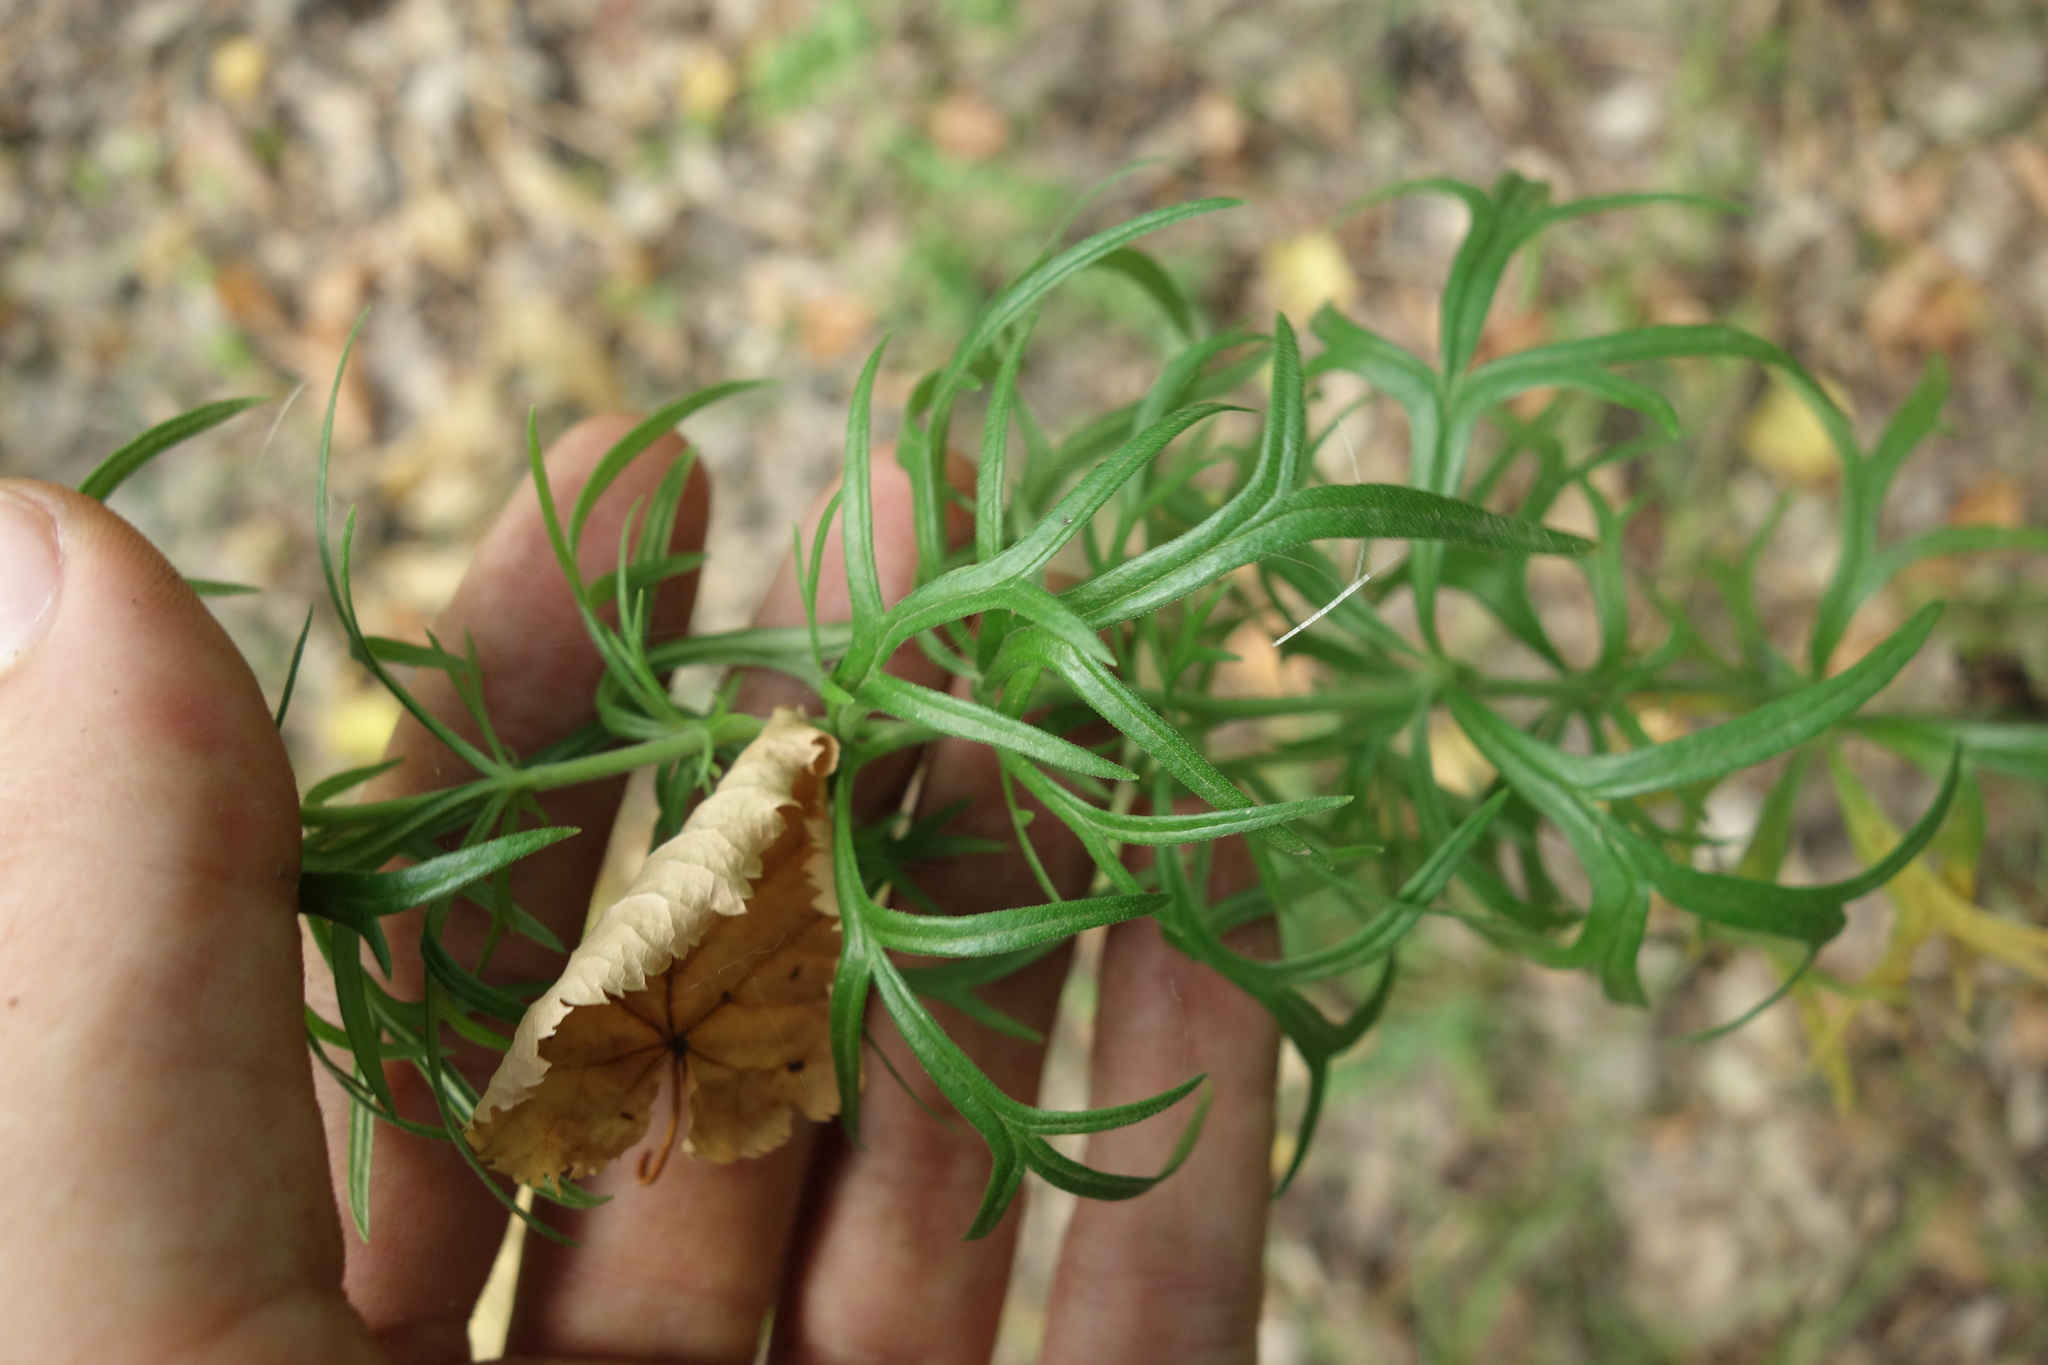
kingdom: Plantae
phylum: Tracheophyta
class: Magnoliopsida
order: Ranunculales
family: Ranunculaceae
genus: Aconitum
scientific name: Aconitum anthora
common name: Yellow monkshood
